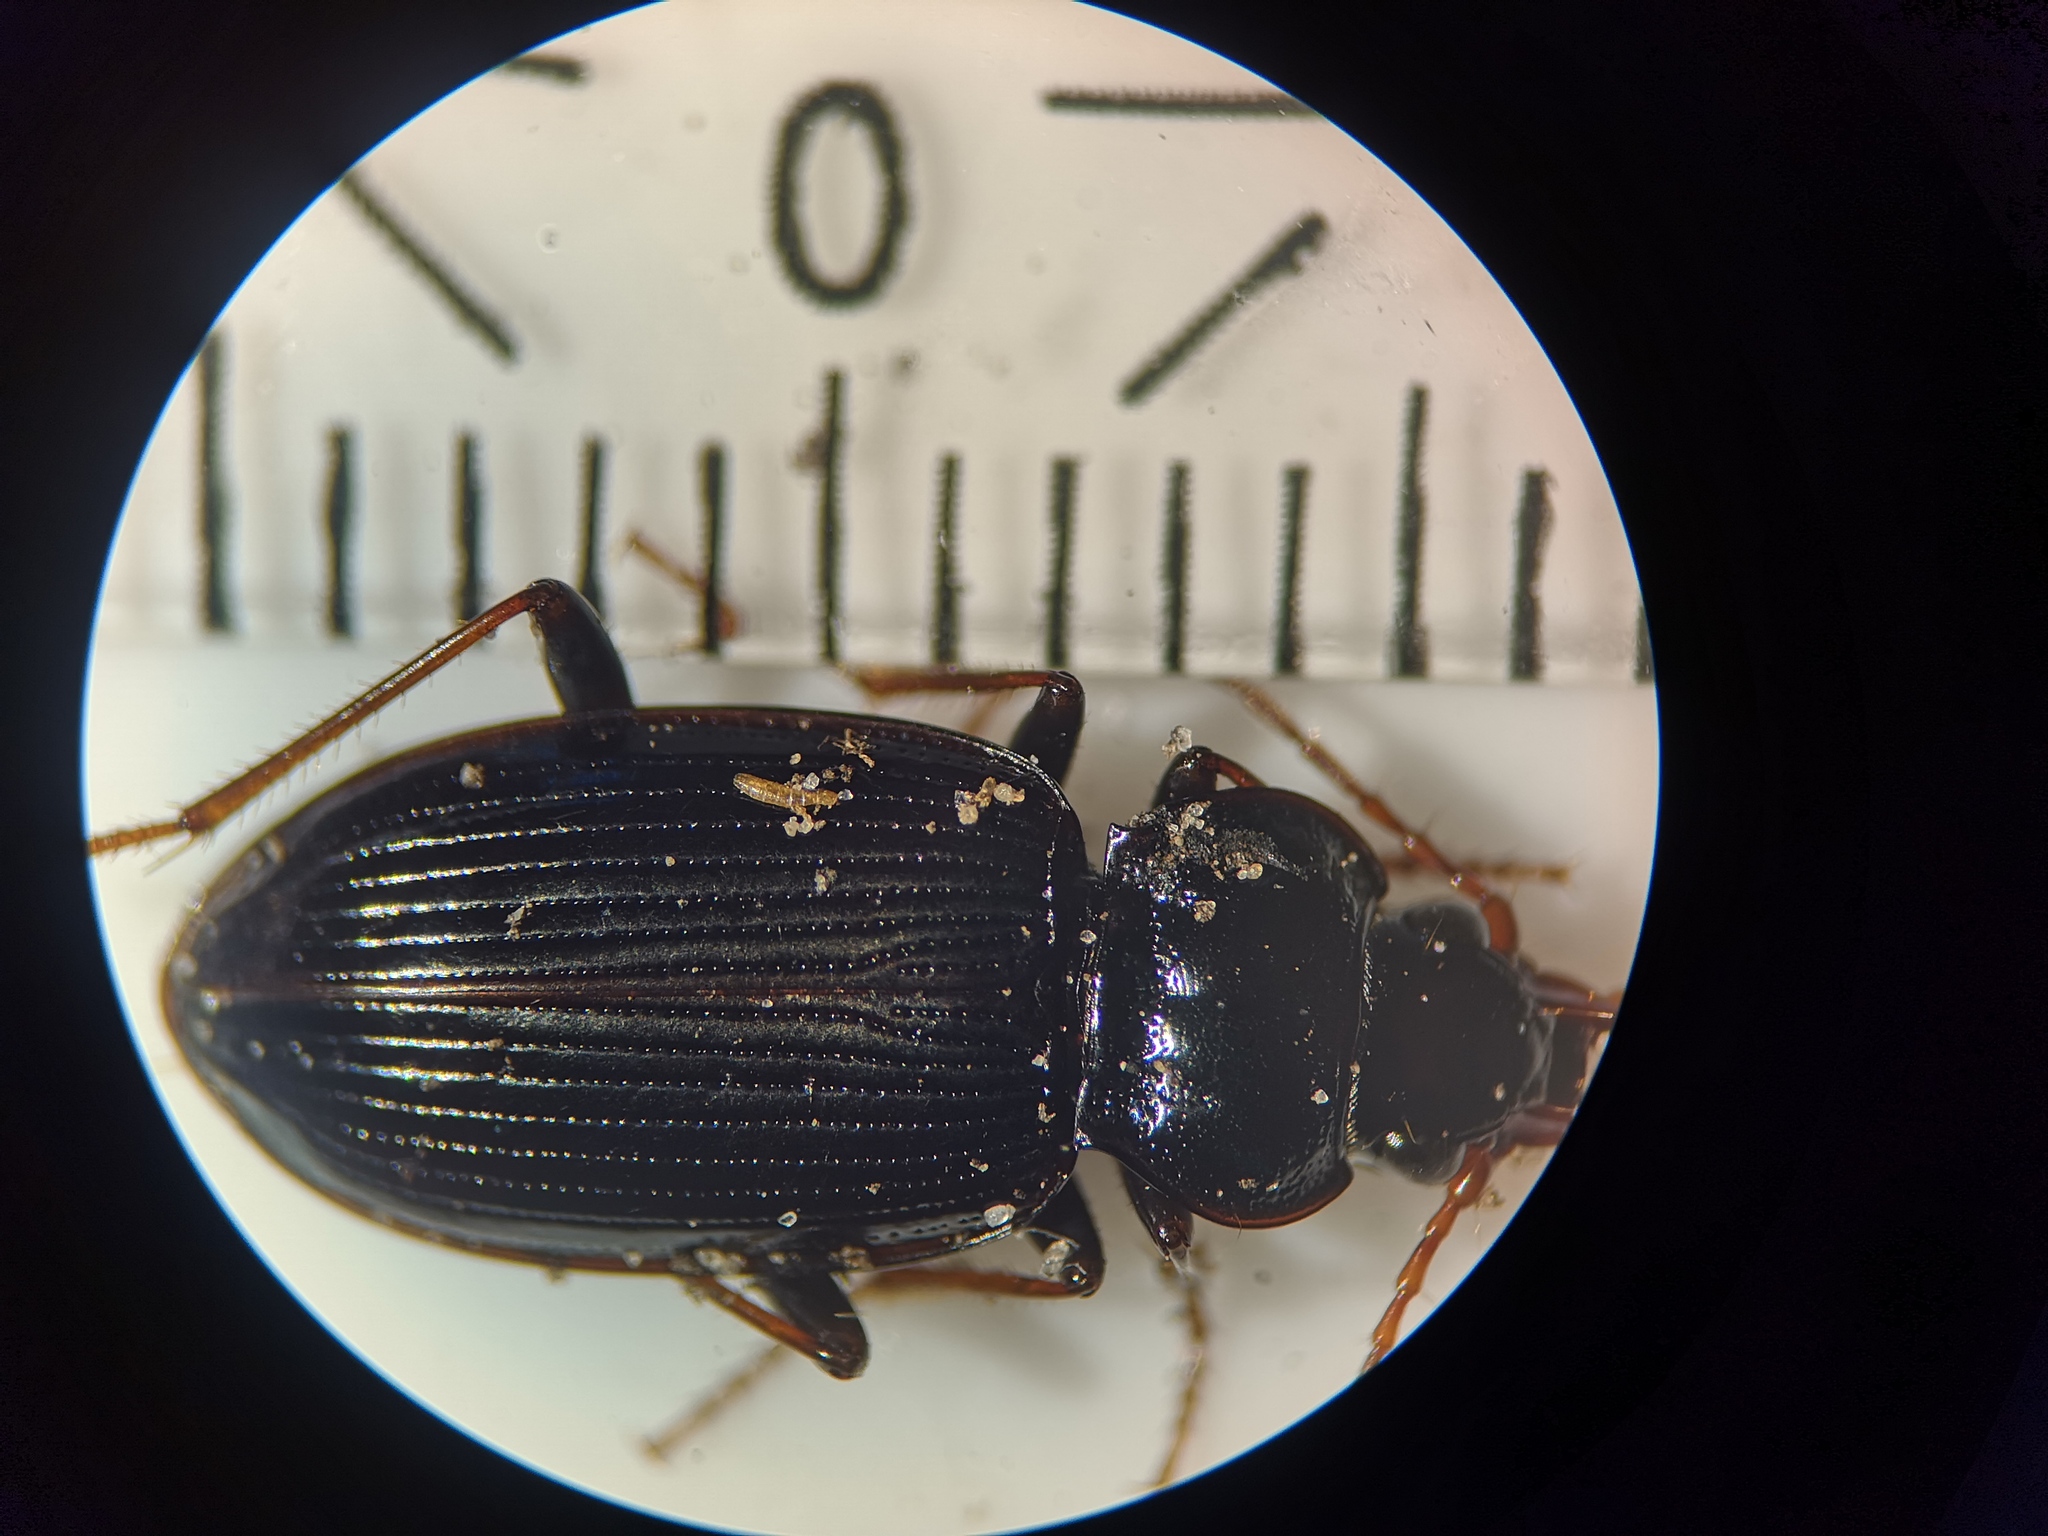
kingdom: Animalia
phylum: Arthropoda
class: Insecta
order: Coleoptera
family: Carabidae
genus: Nebria
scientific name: Nebria brevicollis
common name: Short-necked gazelle beetle
